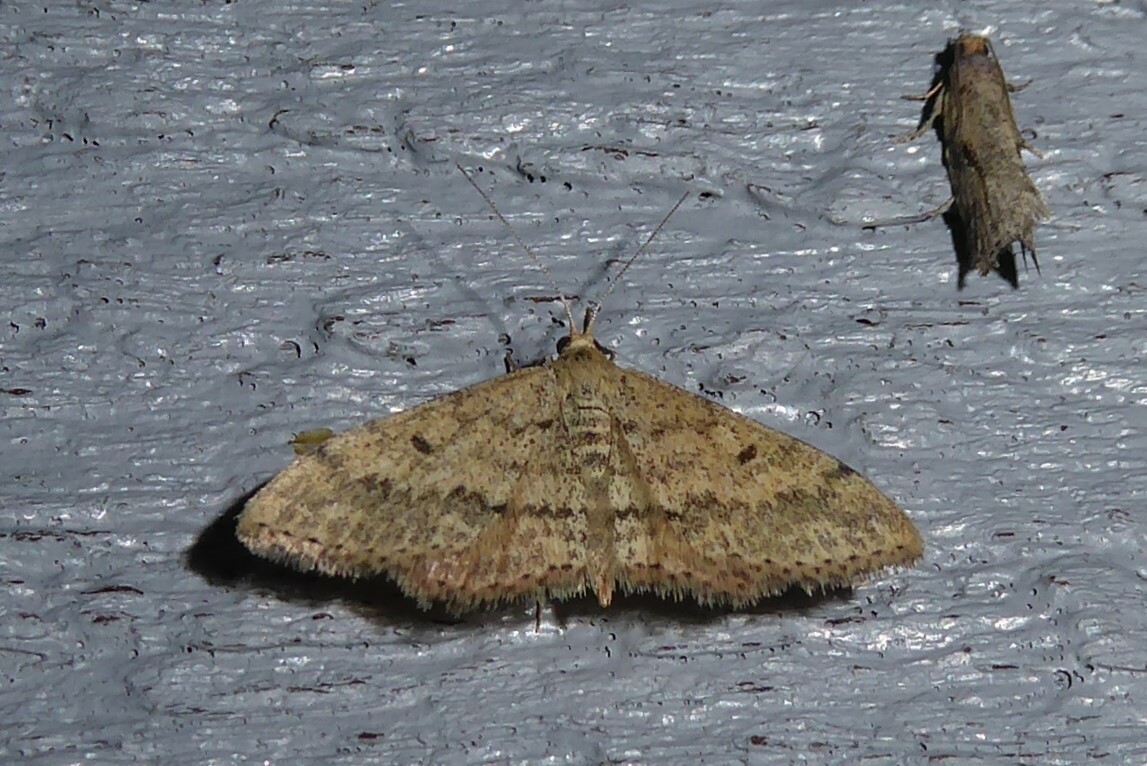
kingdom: Animalia
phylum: Arthropoda
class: Insecta
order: Lepidoptera
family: Geometridae
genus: Scopula
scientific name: Scopula rubraria
